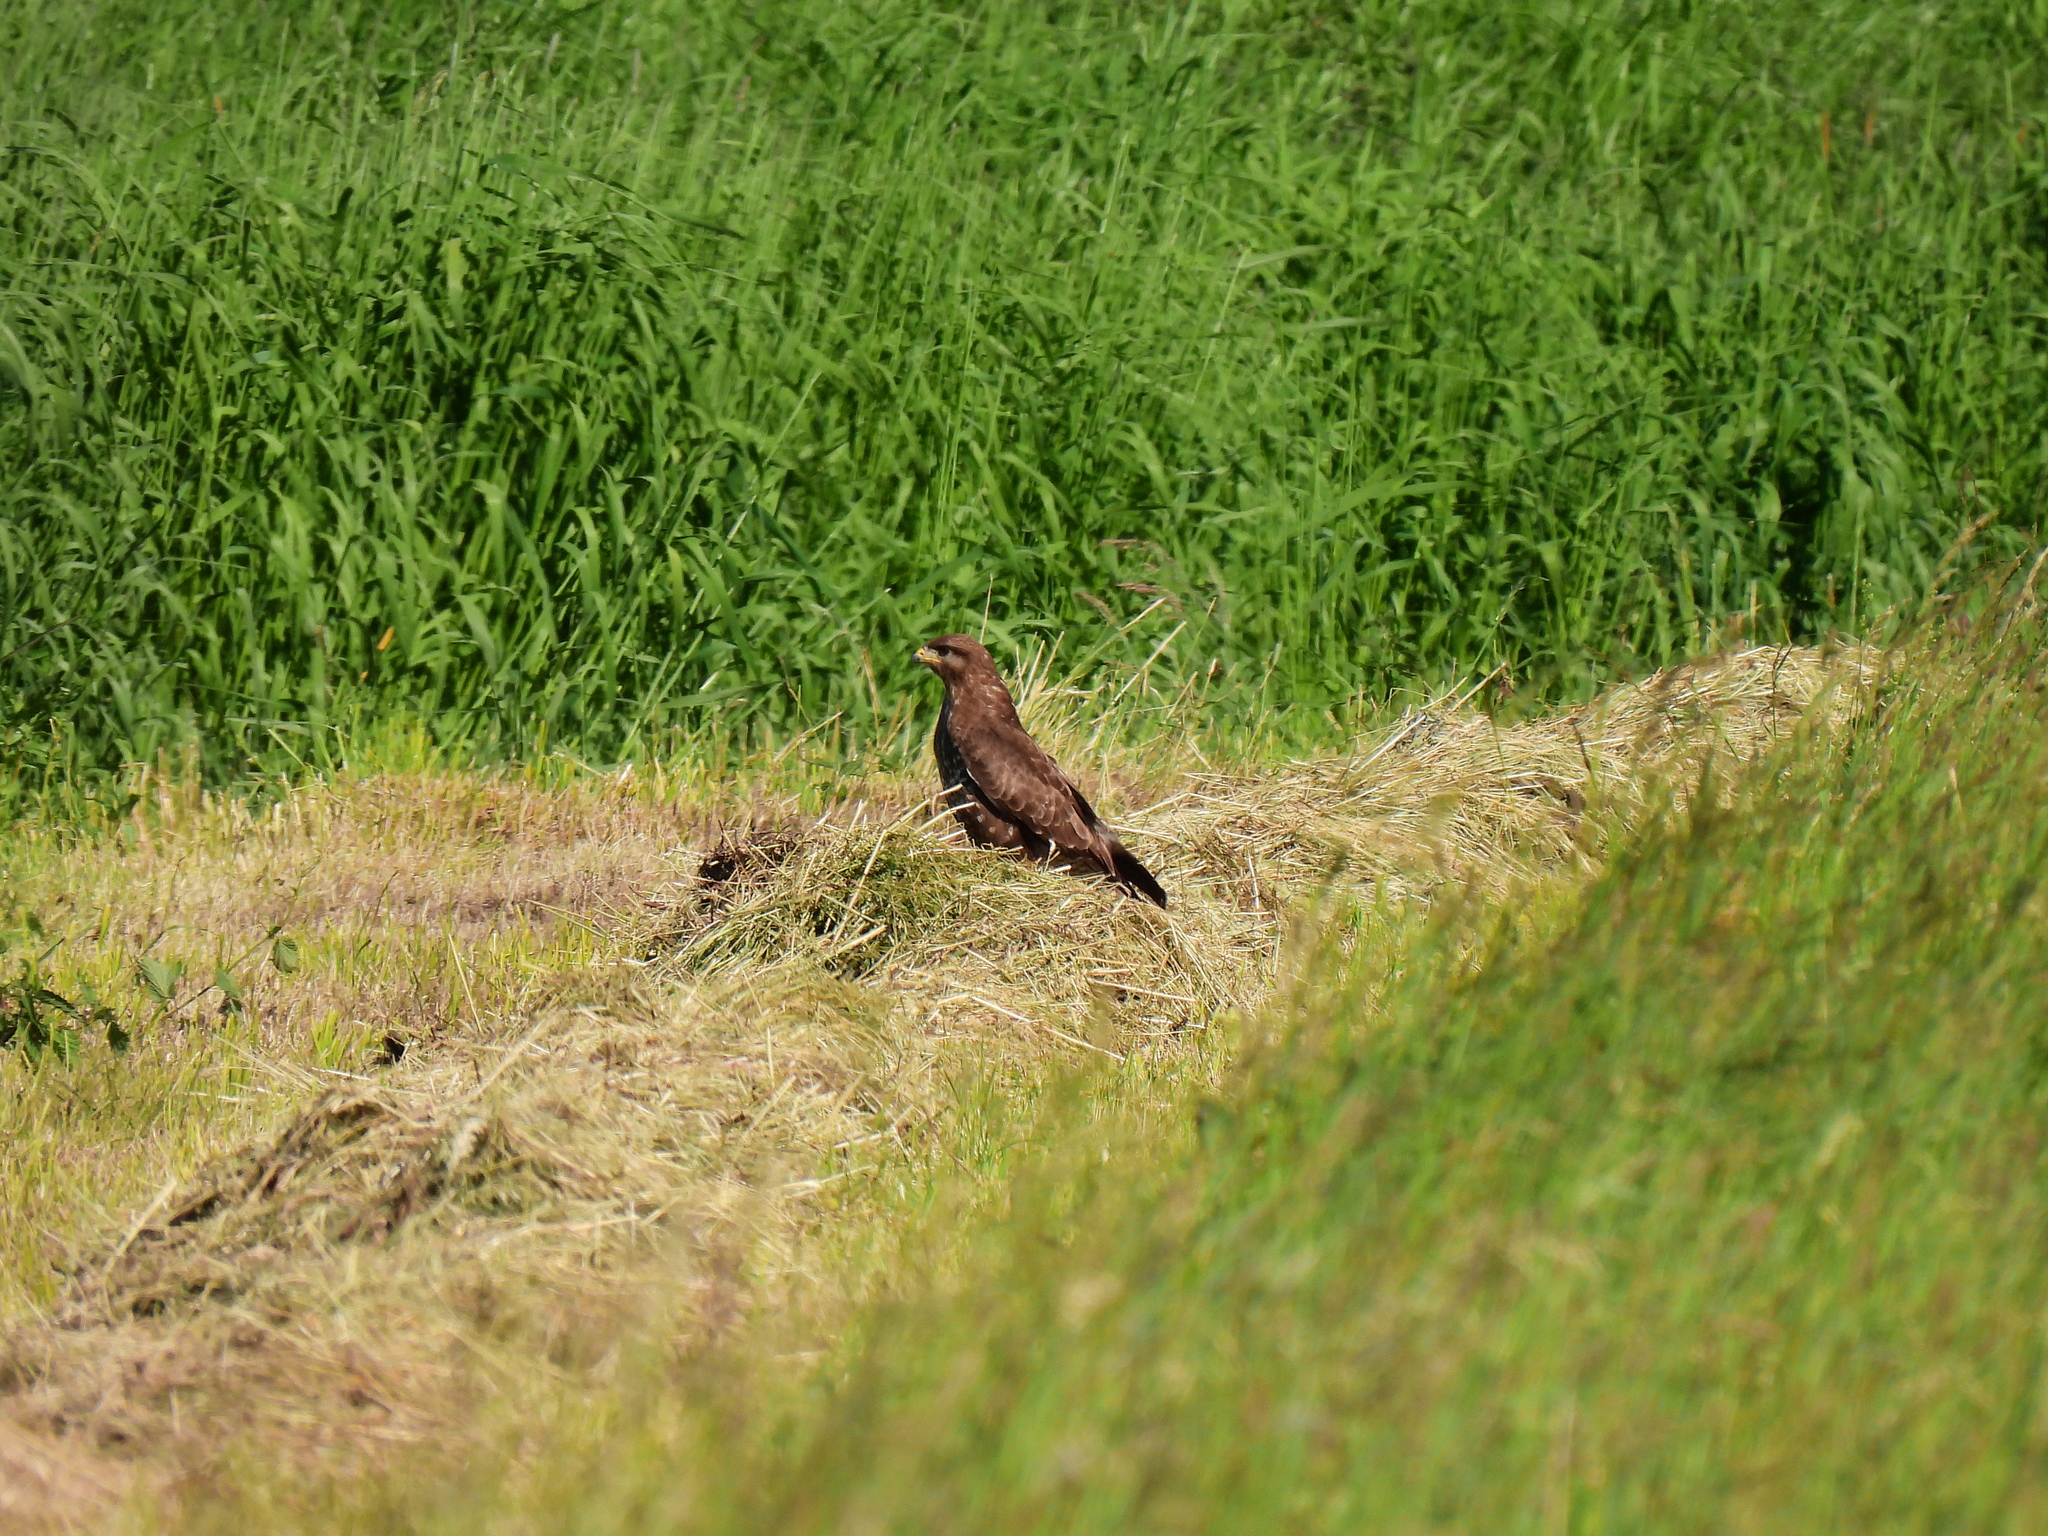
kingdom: Animalia
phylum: Chordata
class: Aves
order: Accipitriformes
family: Accipitridae
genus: Buteo
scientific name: Buteo buteo
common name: Common buzzard
